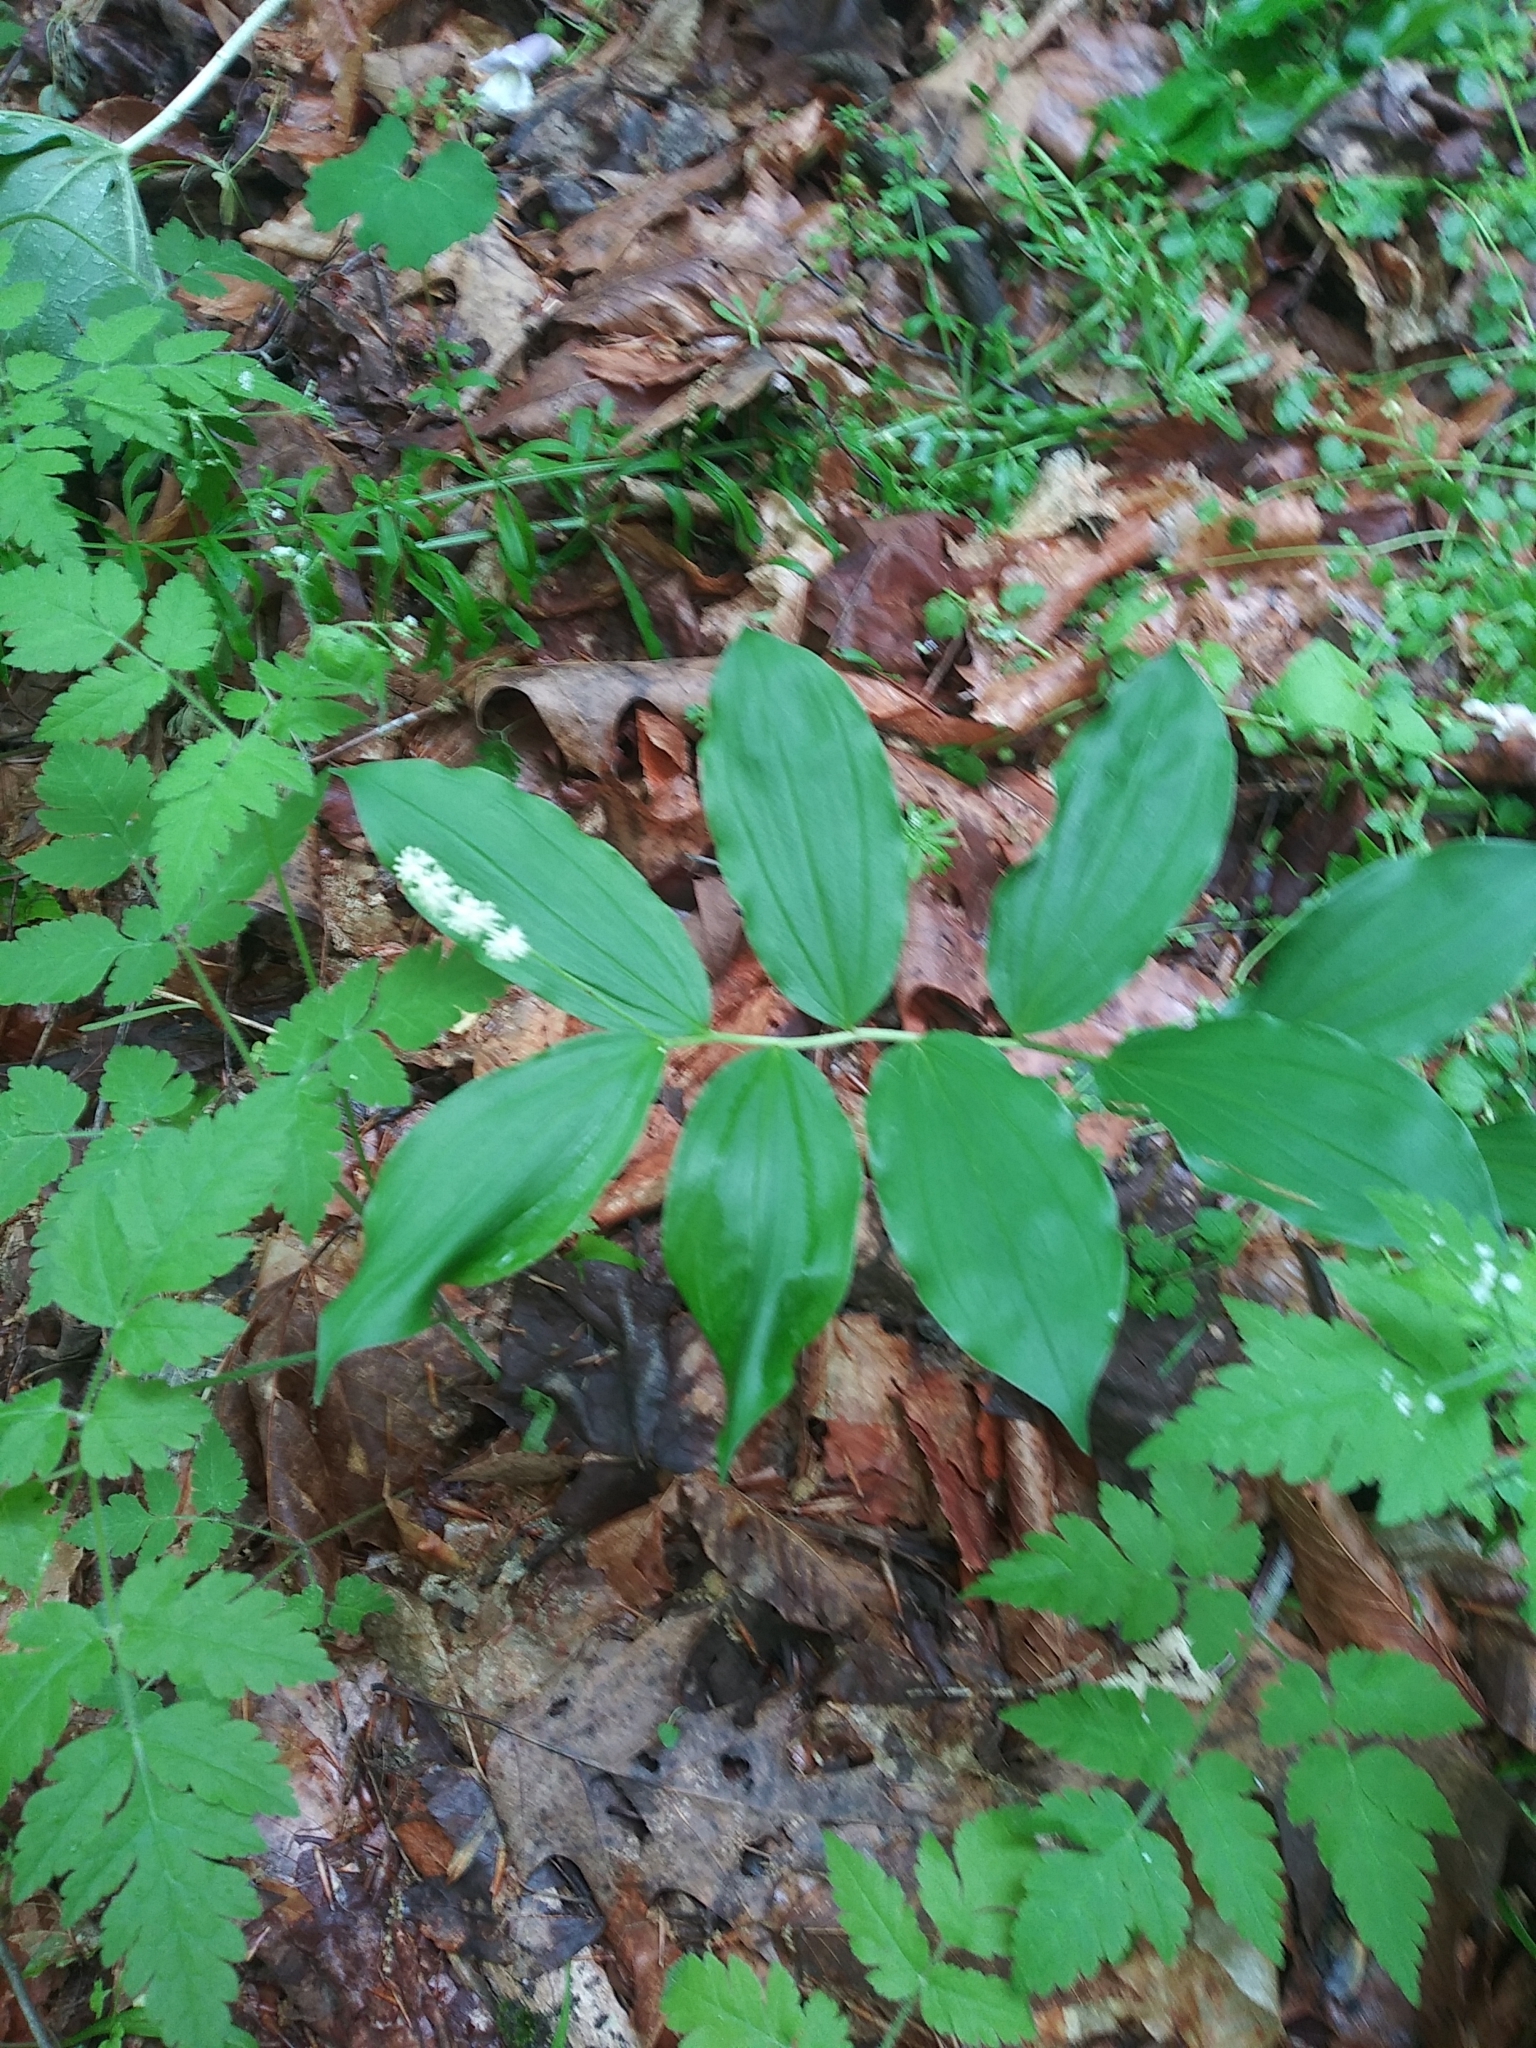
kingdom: Plantae
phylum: Tracheophyta
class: Liliopsida
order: Asparagales
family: Asparagaceae
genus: Maianthemum
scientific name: Maianthemum racemosum
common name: False spikenard
